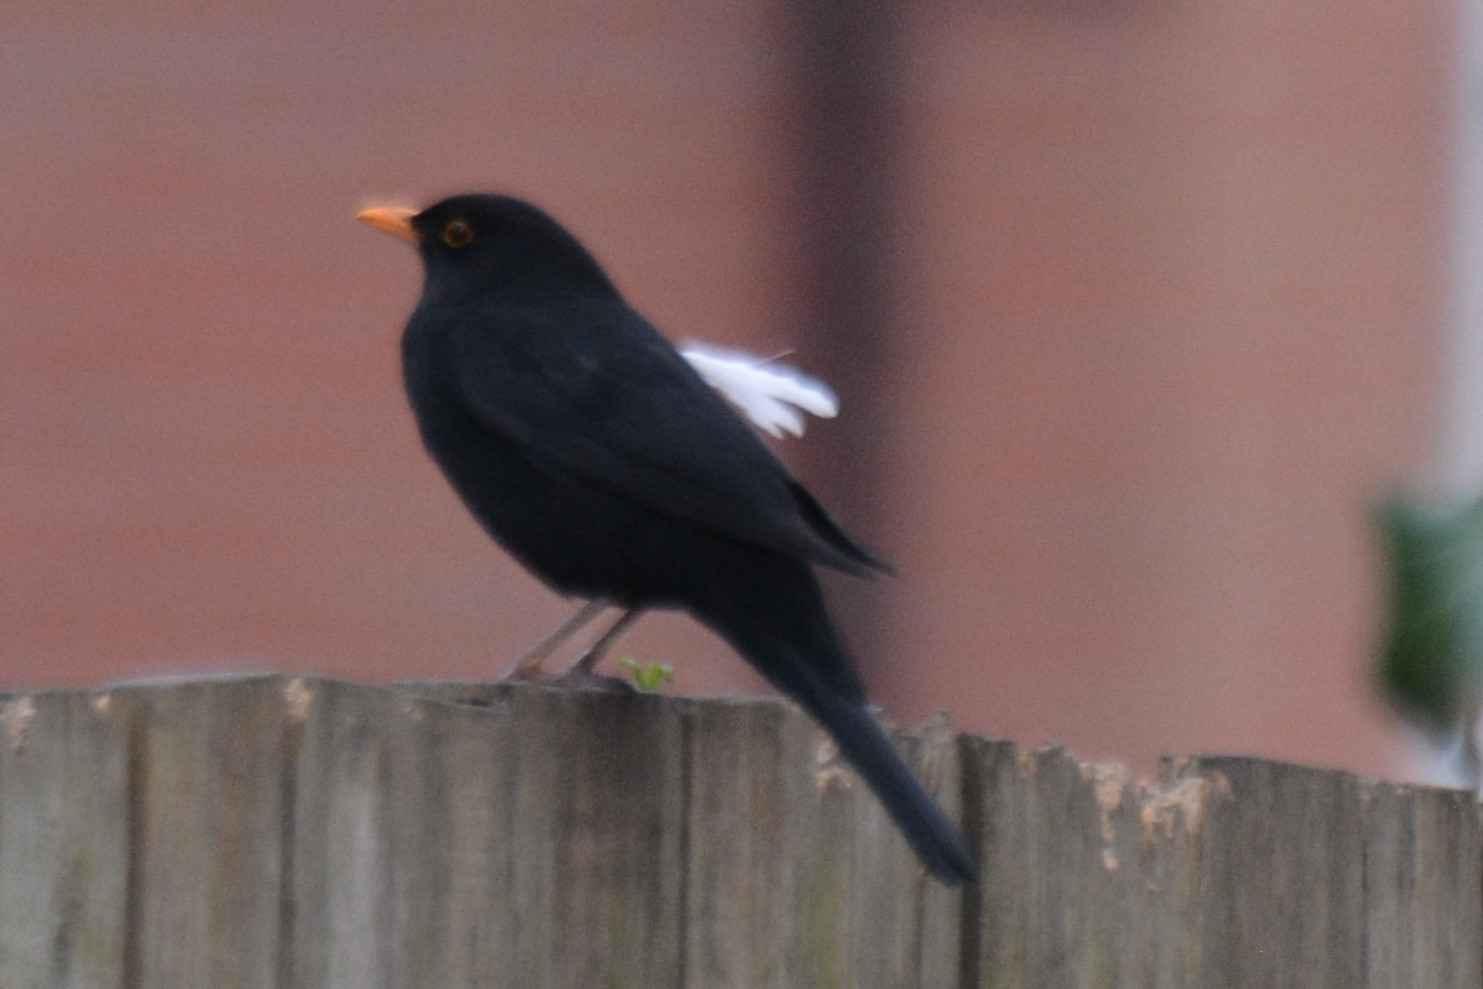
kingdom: Animalia
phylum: Chordata
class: Aves
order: Passeriformes
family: Turdidae
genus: Turdus
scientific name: Turdus merula
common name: Common blackbird
